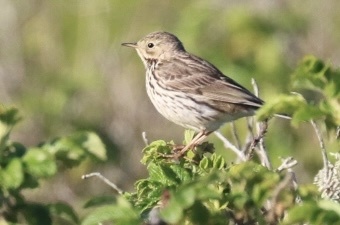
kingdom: Animalia
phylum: Chordata
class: Aves
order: Passeriformes
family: Motacillidae
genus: Anthus
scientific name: Anthus pratensis
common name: Meadow pipit
